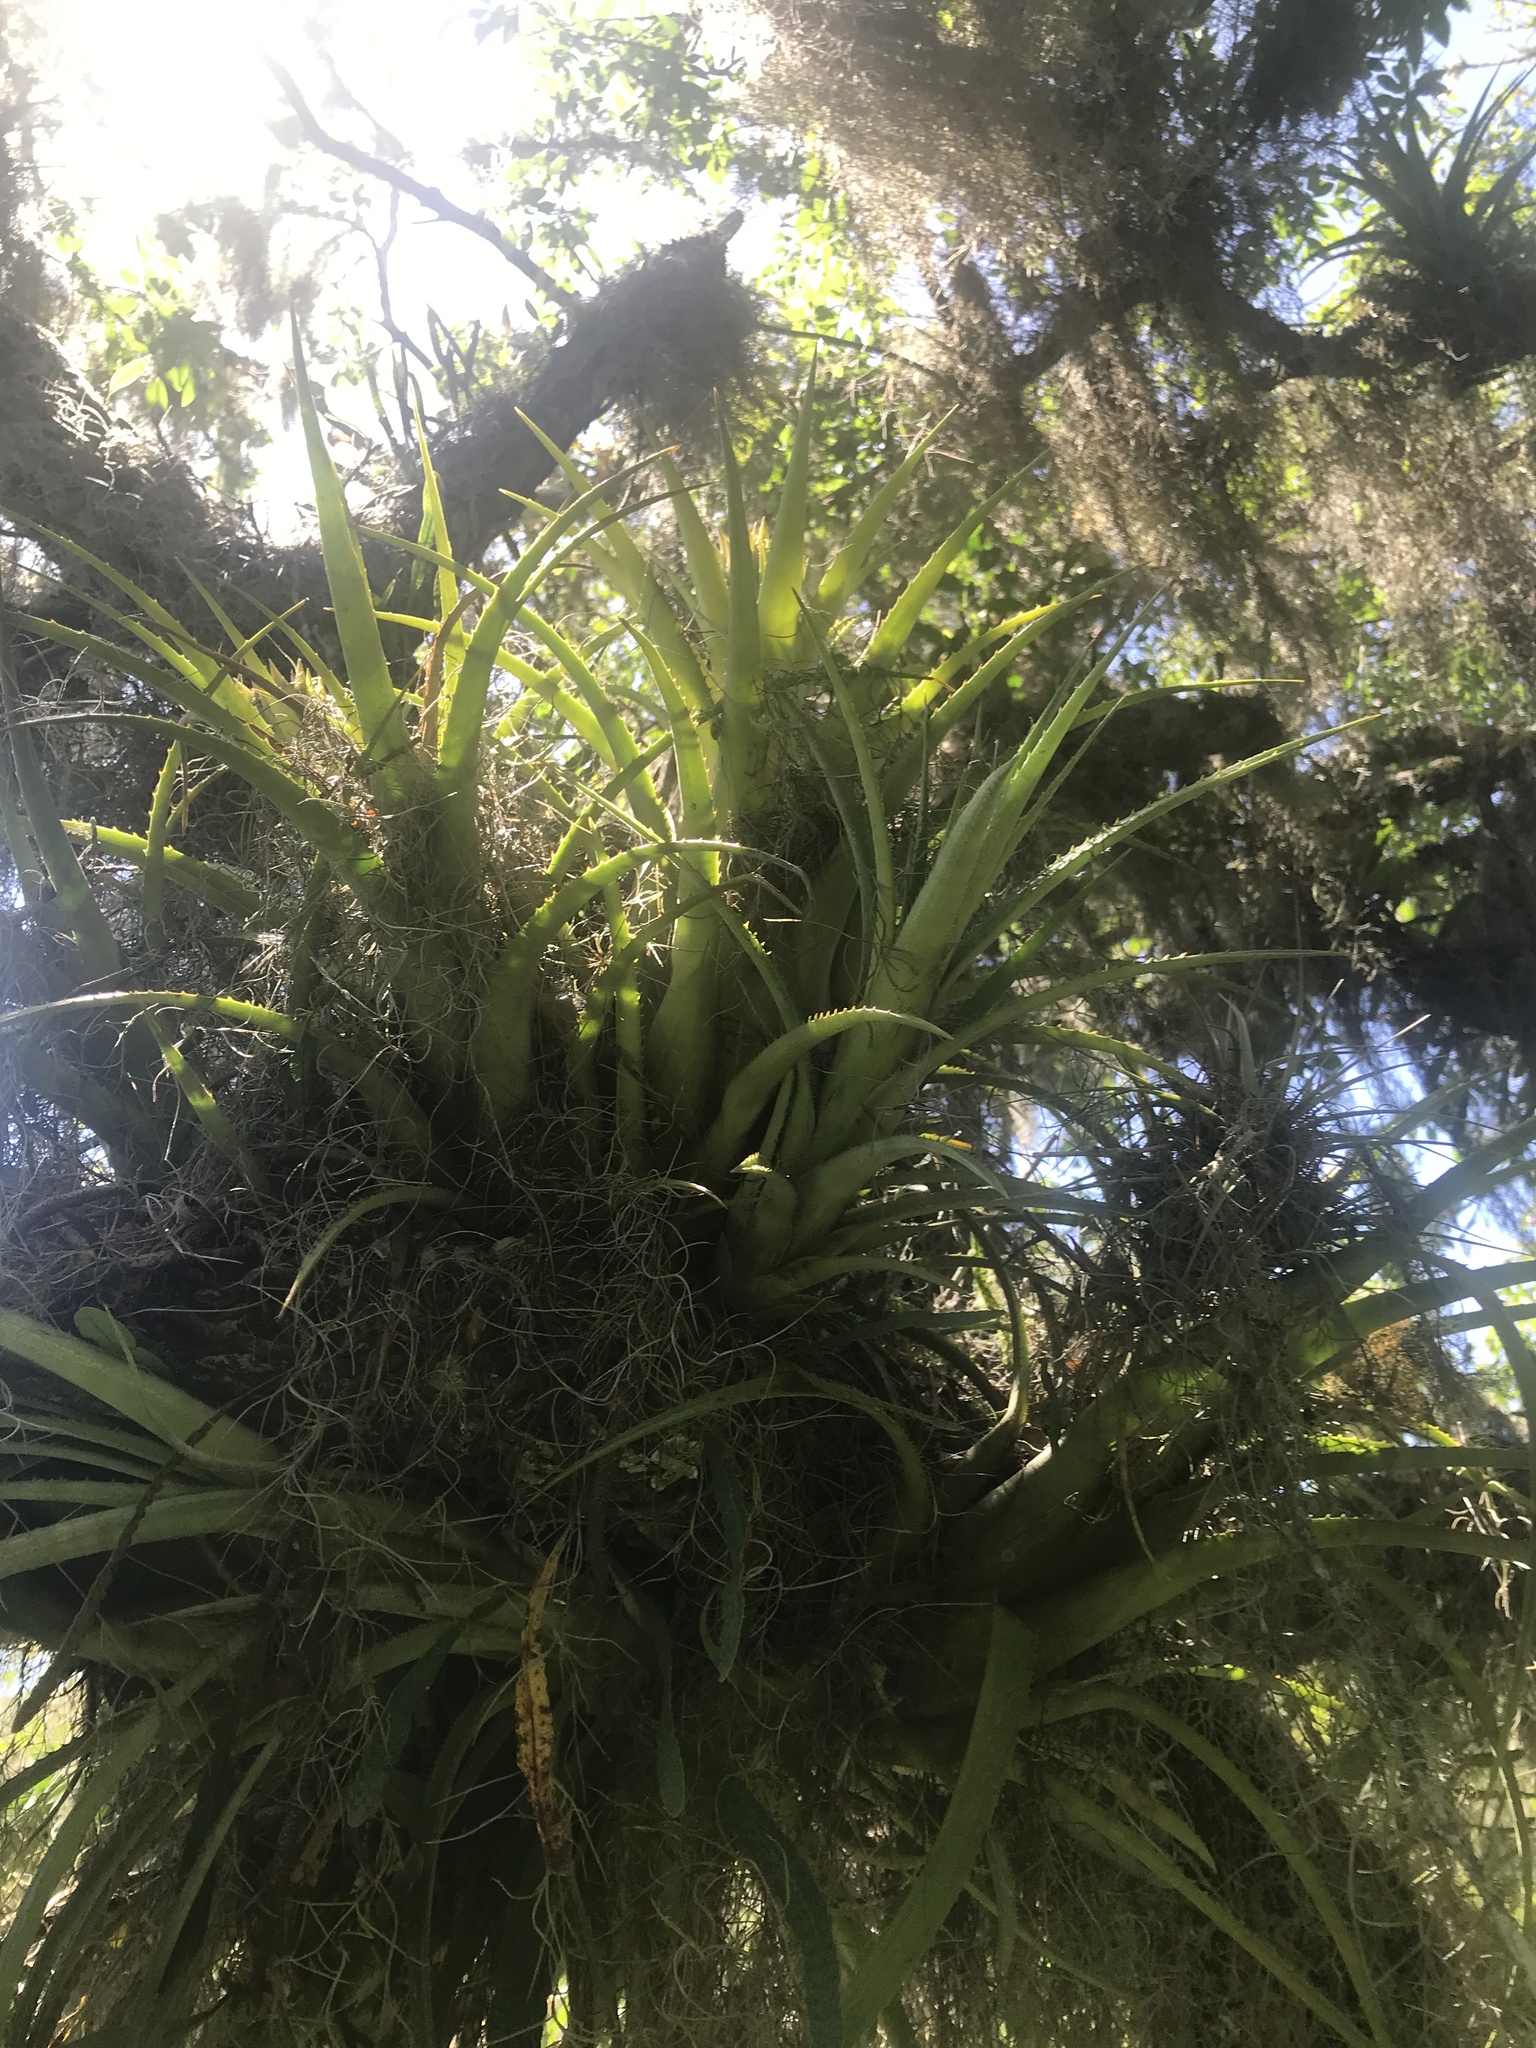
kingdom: Plantae
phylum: Tracheophyta
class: Liliopsida
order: Poales
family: Bromeliaceae
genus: Aechmea
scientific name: Aechmea recurvata
